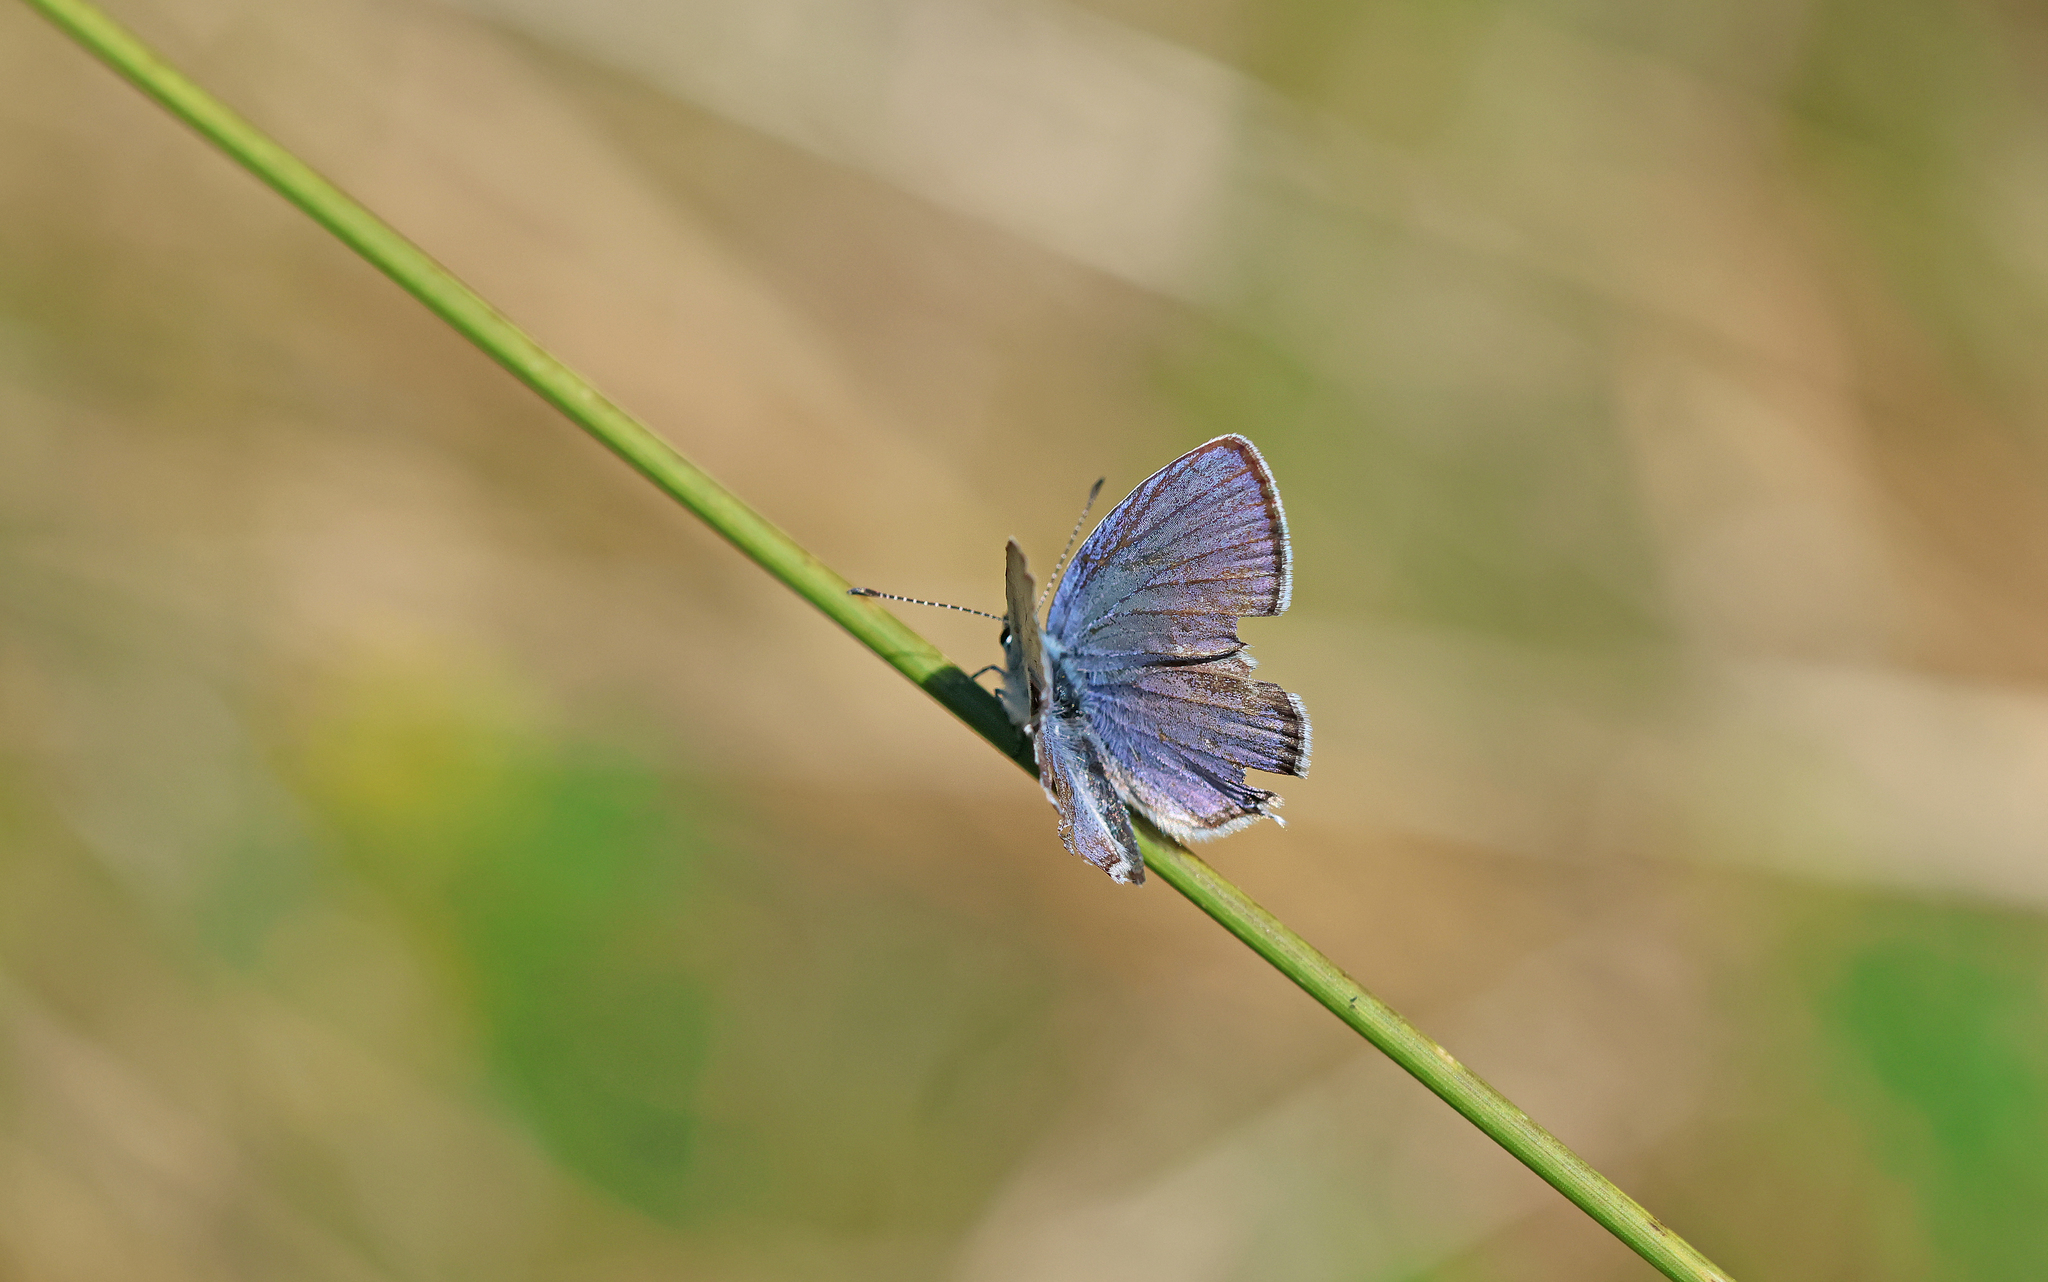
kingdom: Animalia
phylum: Arthropoda
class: Insecta
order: Lepidoptera
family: Lycaenidae
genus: Celastrina
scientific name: Celastrina argiolus
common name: Holly blue
